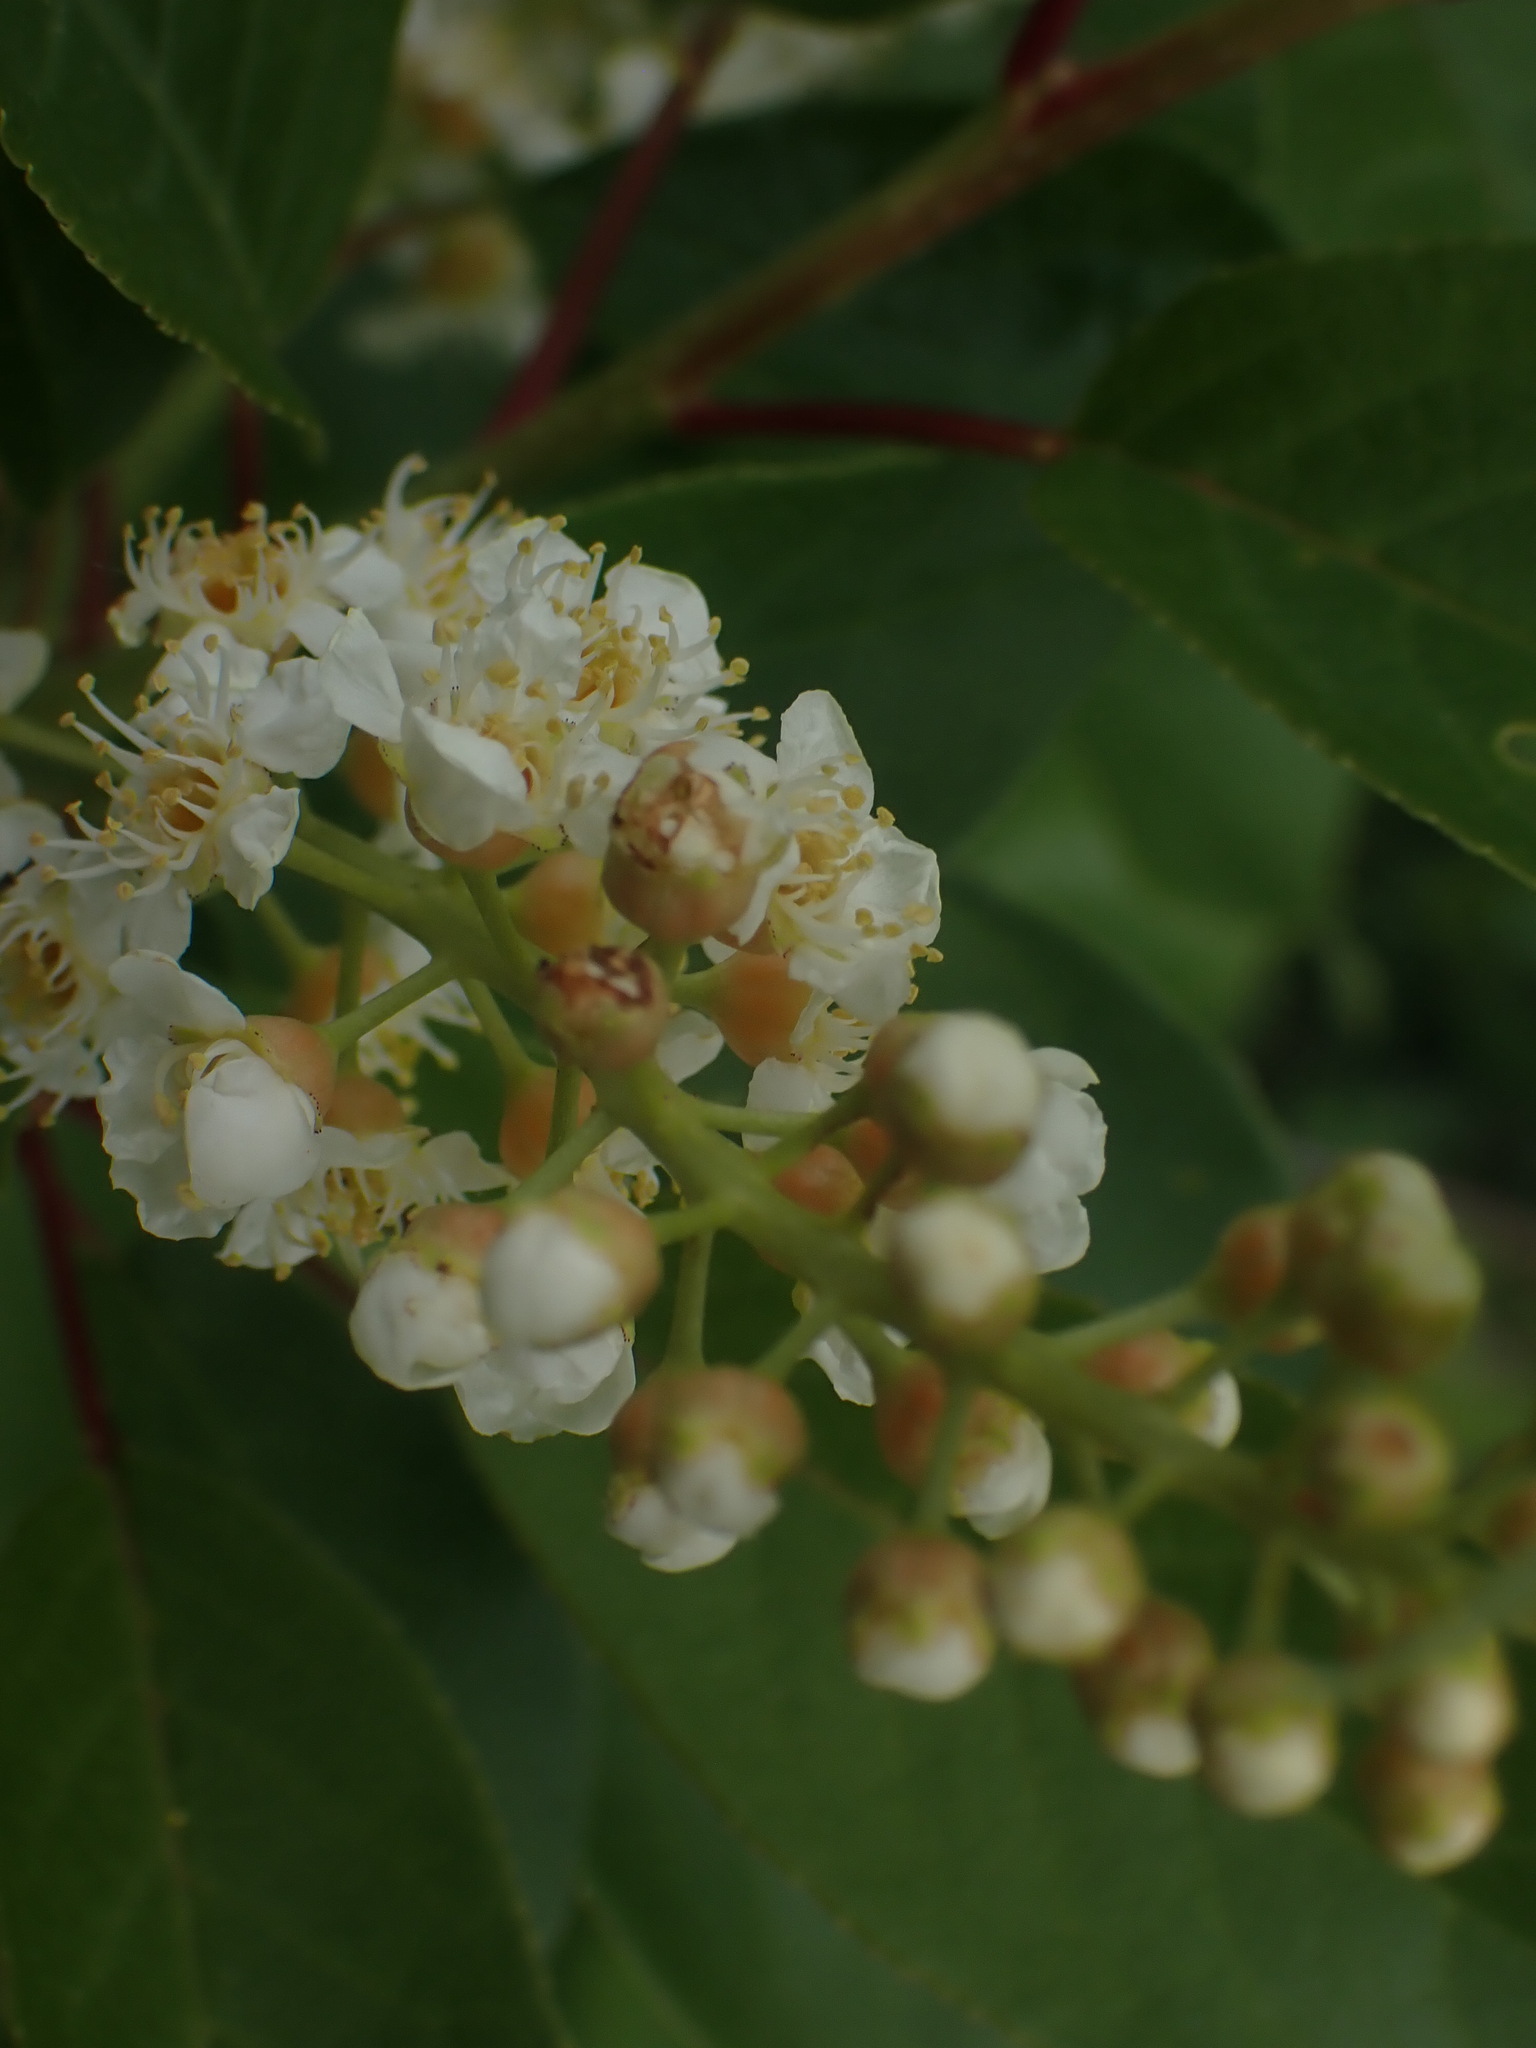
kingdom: Plantae
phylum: Tracheophyta
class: Magnoliopsida
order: Rosales
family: Rosaceae
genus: Prunus
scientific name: Prunus virginiana
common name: Chokecherry
